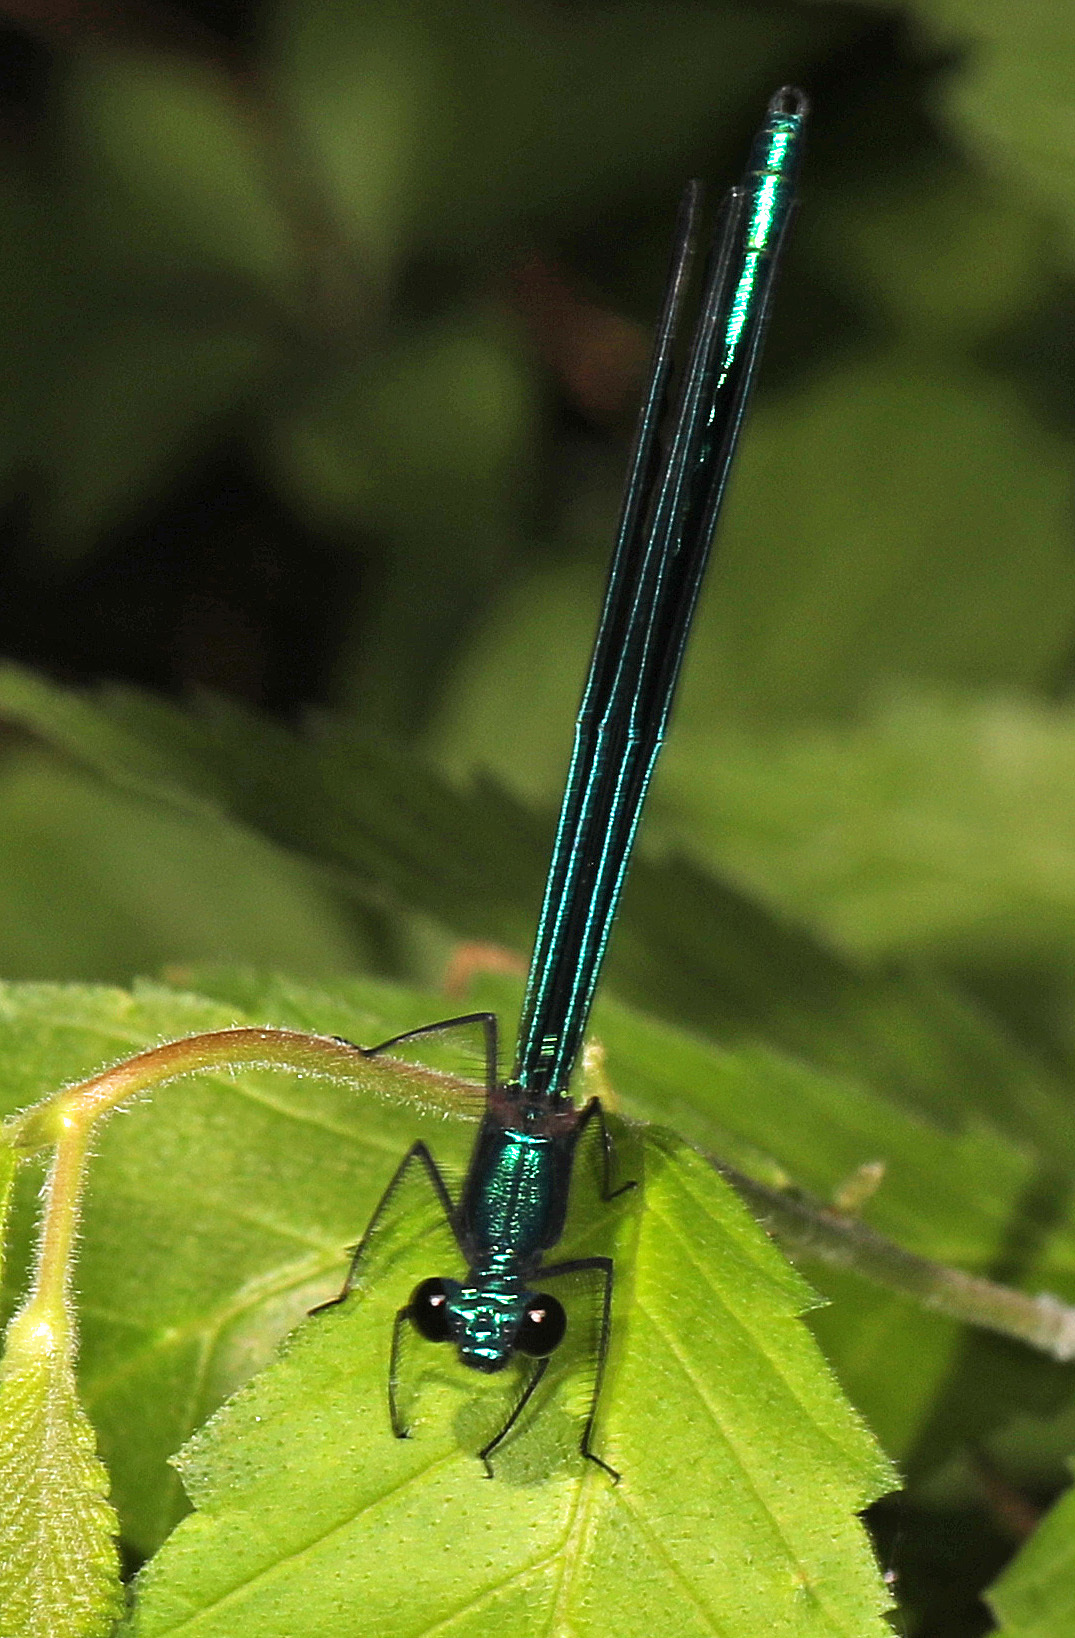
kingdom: Animalia
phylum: Arthropoda
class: Insecta
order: Odonata
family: Calopterygidae
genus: Calopteryx
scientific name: Calopteryx maculata
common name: Ebony jewelwing
